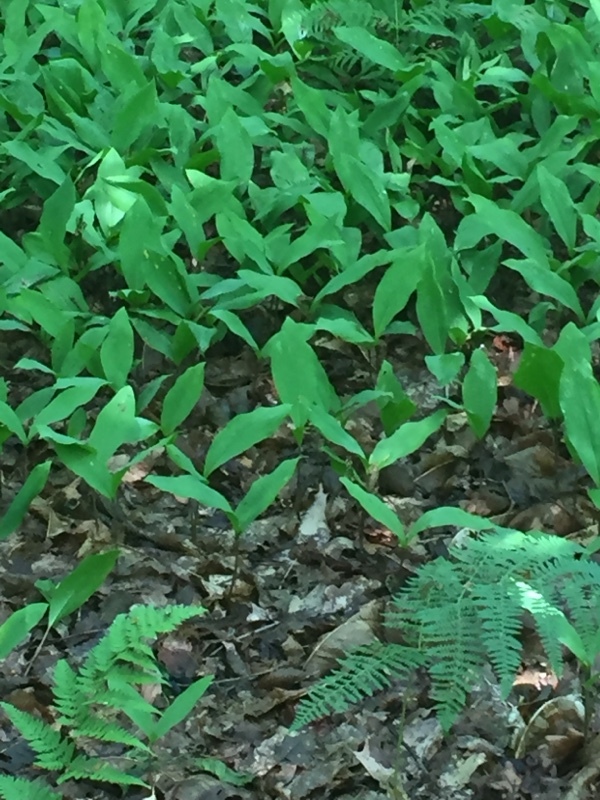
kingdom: Plantae
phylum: Tracheophyta
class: Liliopsida
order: Asparagales
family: Asparagaceae
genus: Convallaria
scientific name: Convallaria majalis
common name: Lily-of-the-valley
